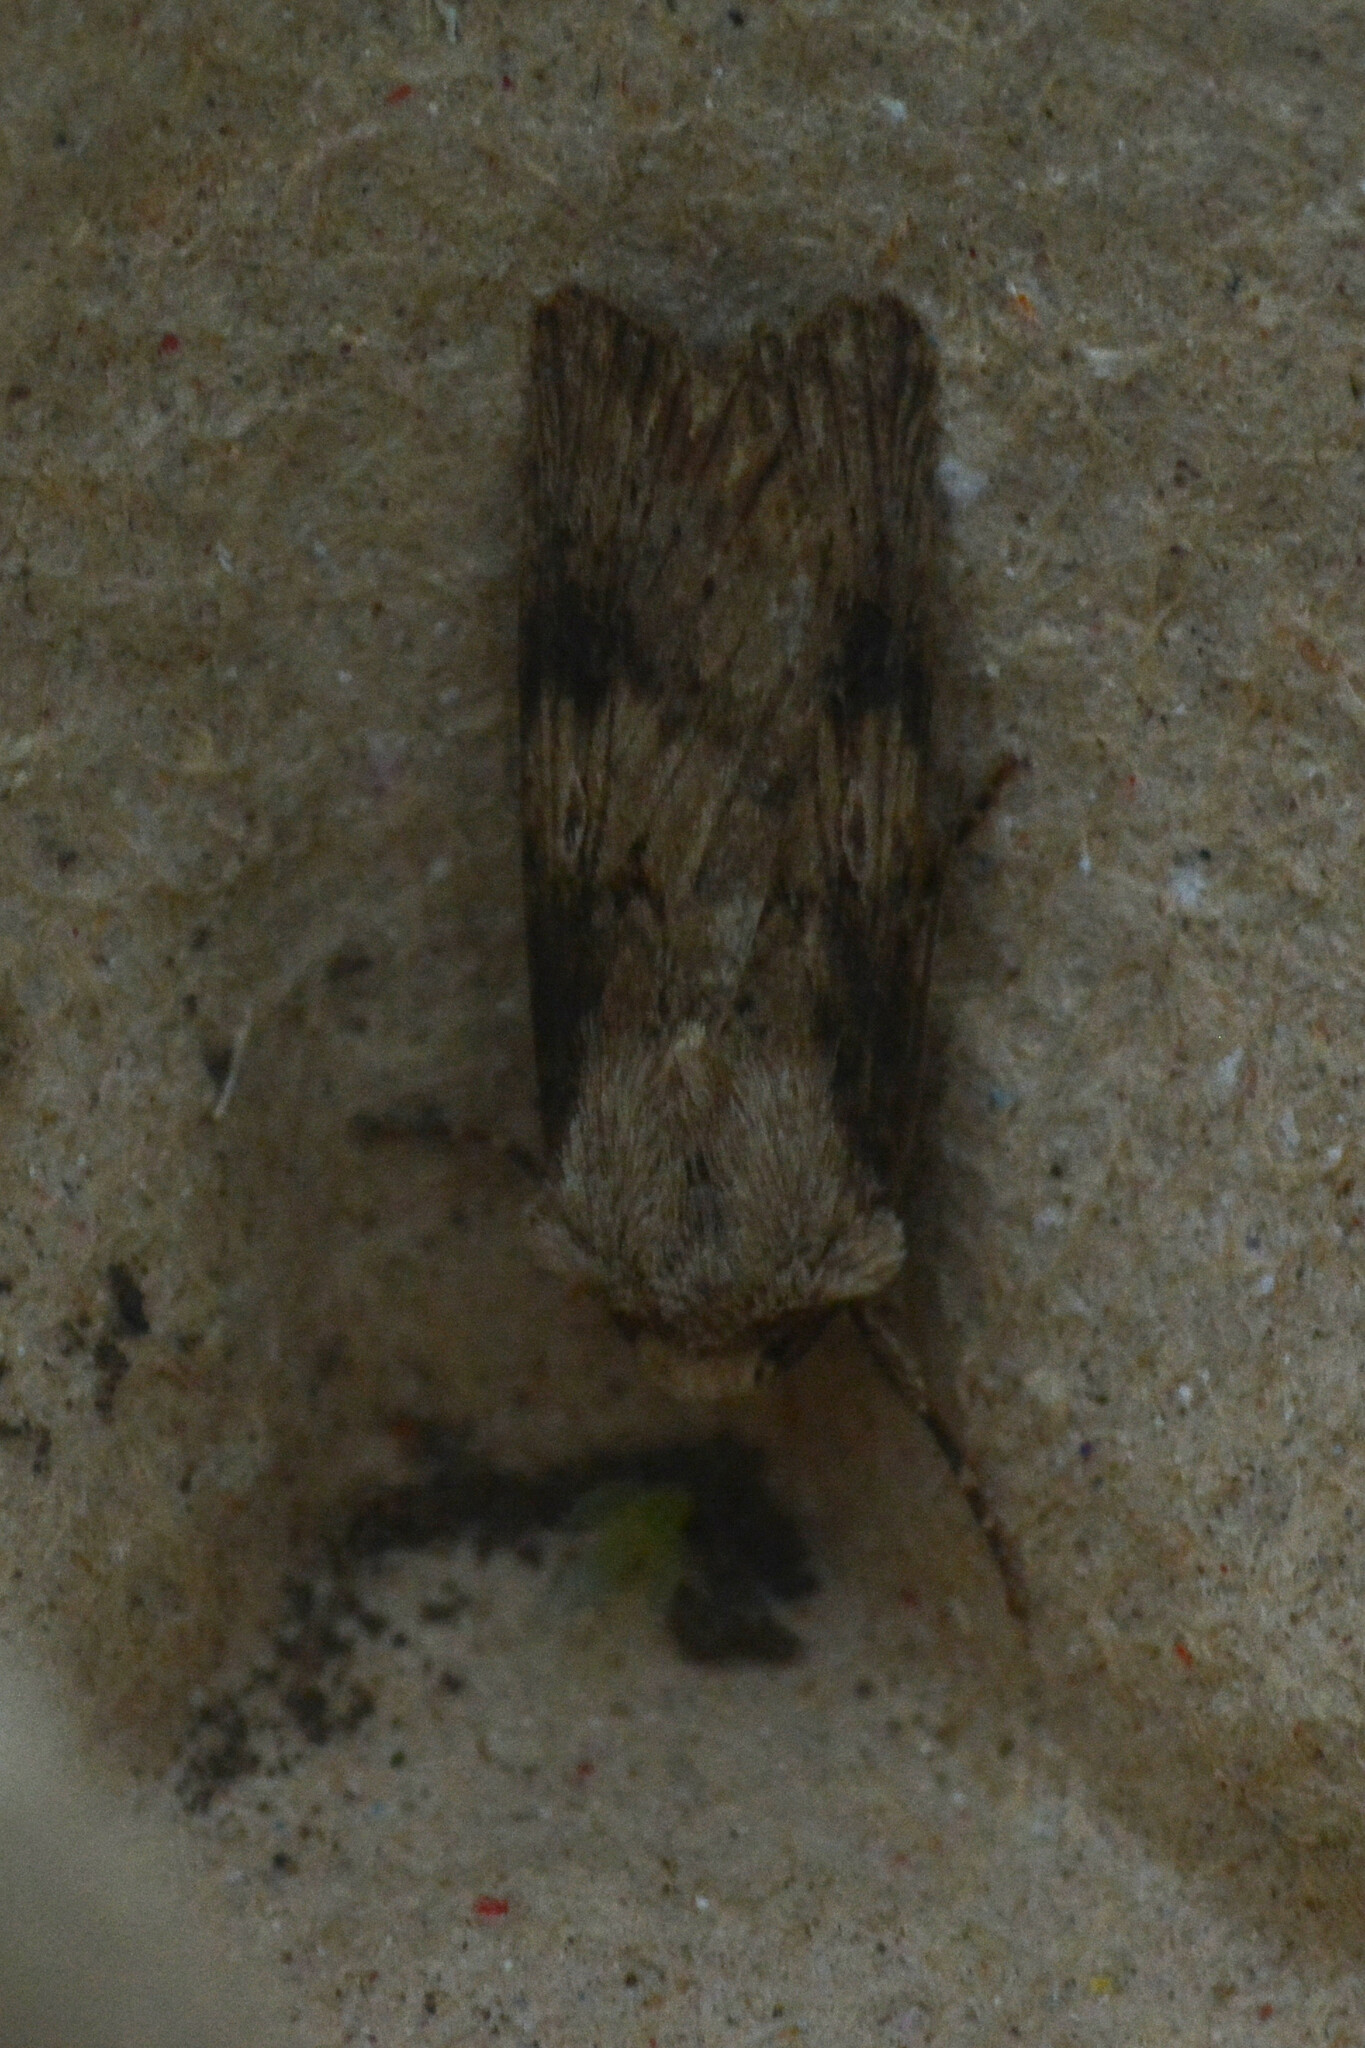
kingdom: Animalia
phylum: Arthropoda
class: Insecta
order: Lepidoptera
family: Noctuidae
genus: Agrotis
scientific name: Agrotis puta
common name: Shuttle-shaped dart
